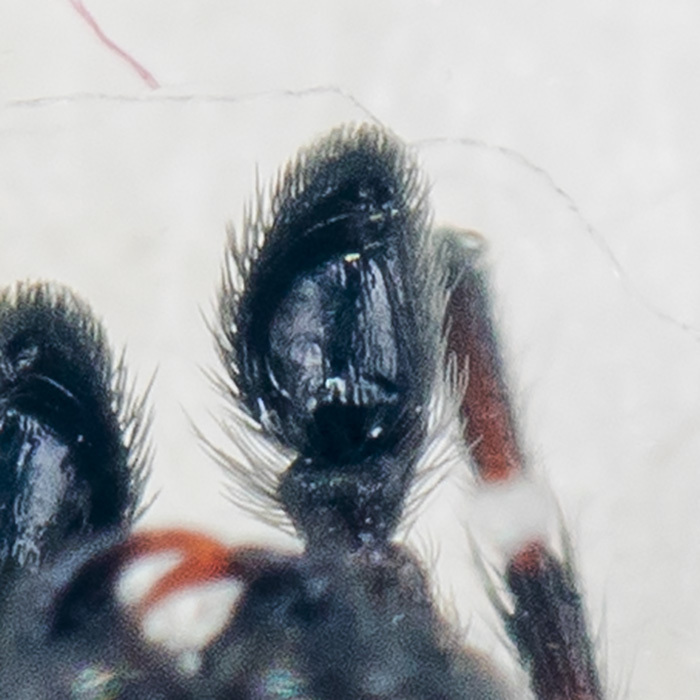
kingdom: Animalia
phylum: Arthropoda
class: Arachnida
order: Araneae
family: Salticidae
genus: Attulus
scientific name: Attulus monstrabilis
